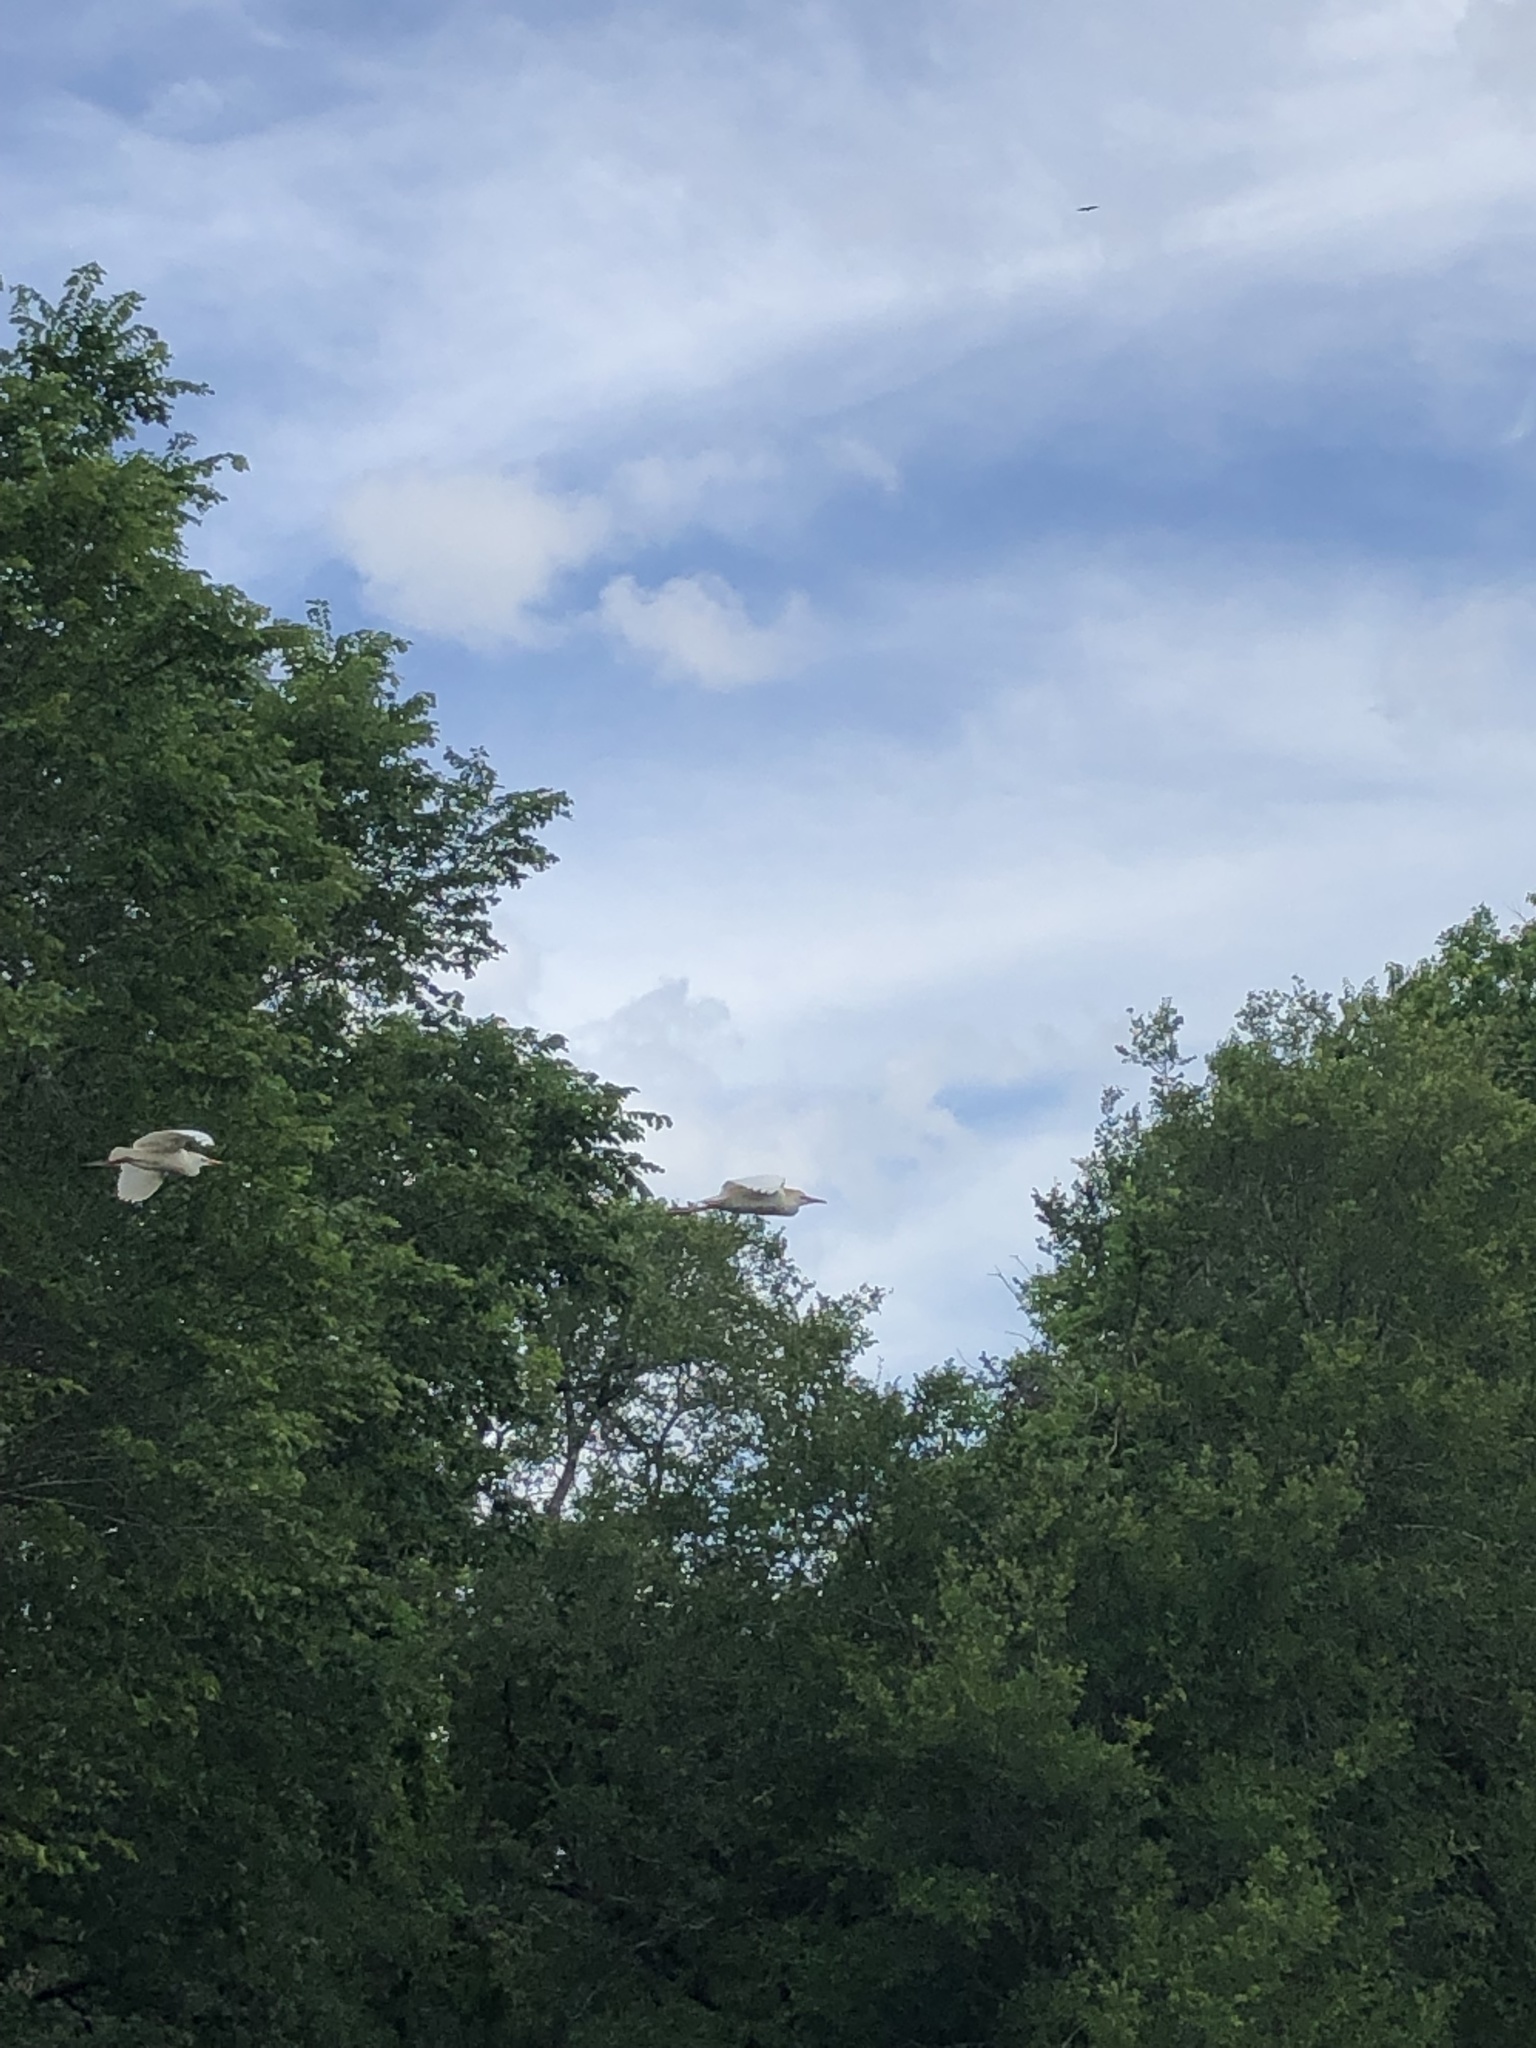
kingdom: Animalia
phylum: Chordata
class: Aves
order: Pelecaniformes
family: Ardeidae
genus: Bubulcus
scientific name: Bubulcus ibis
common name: Cattle egret
